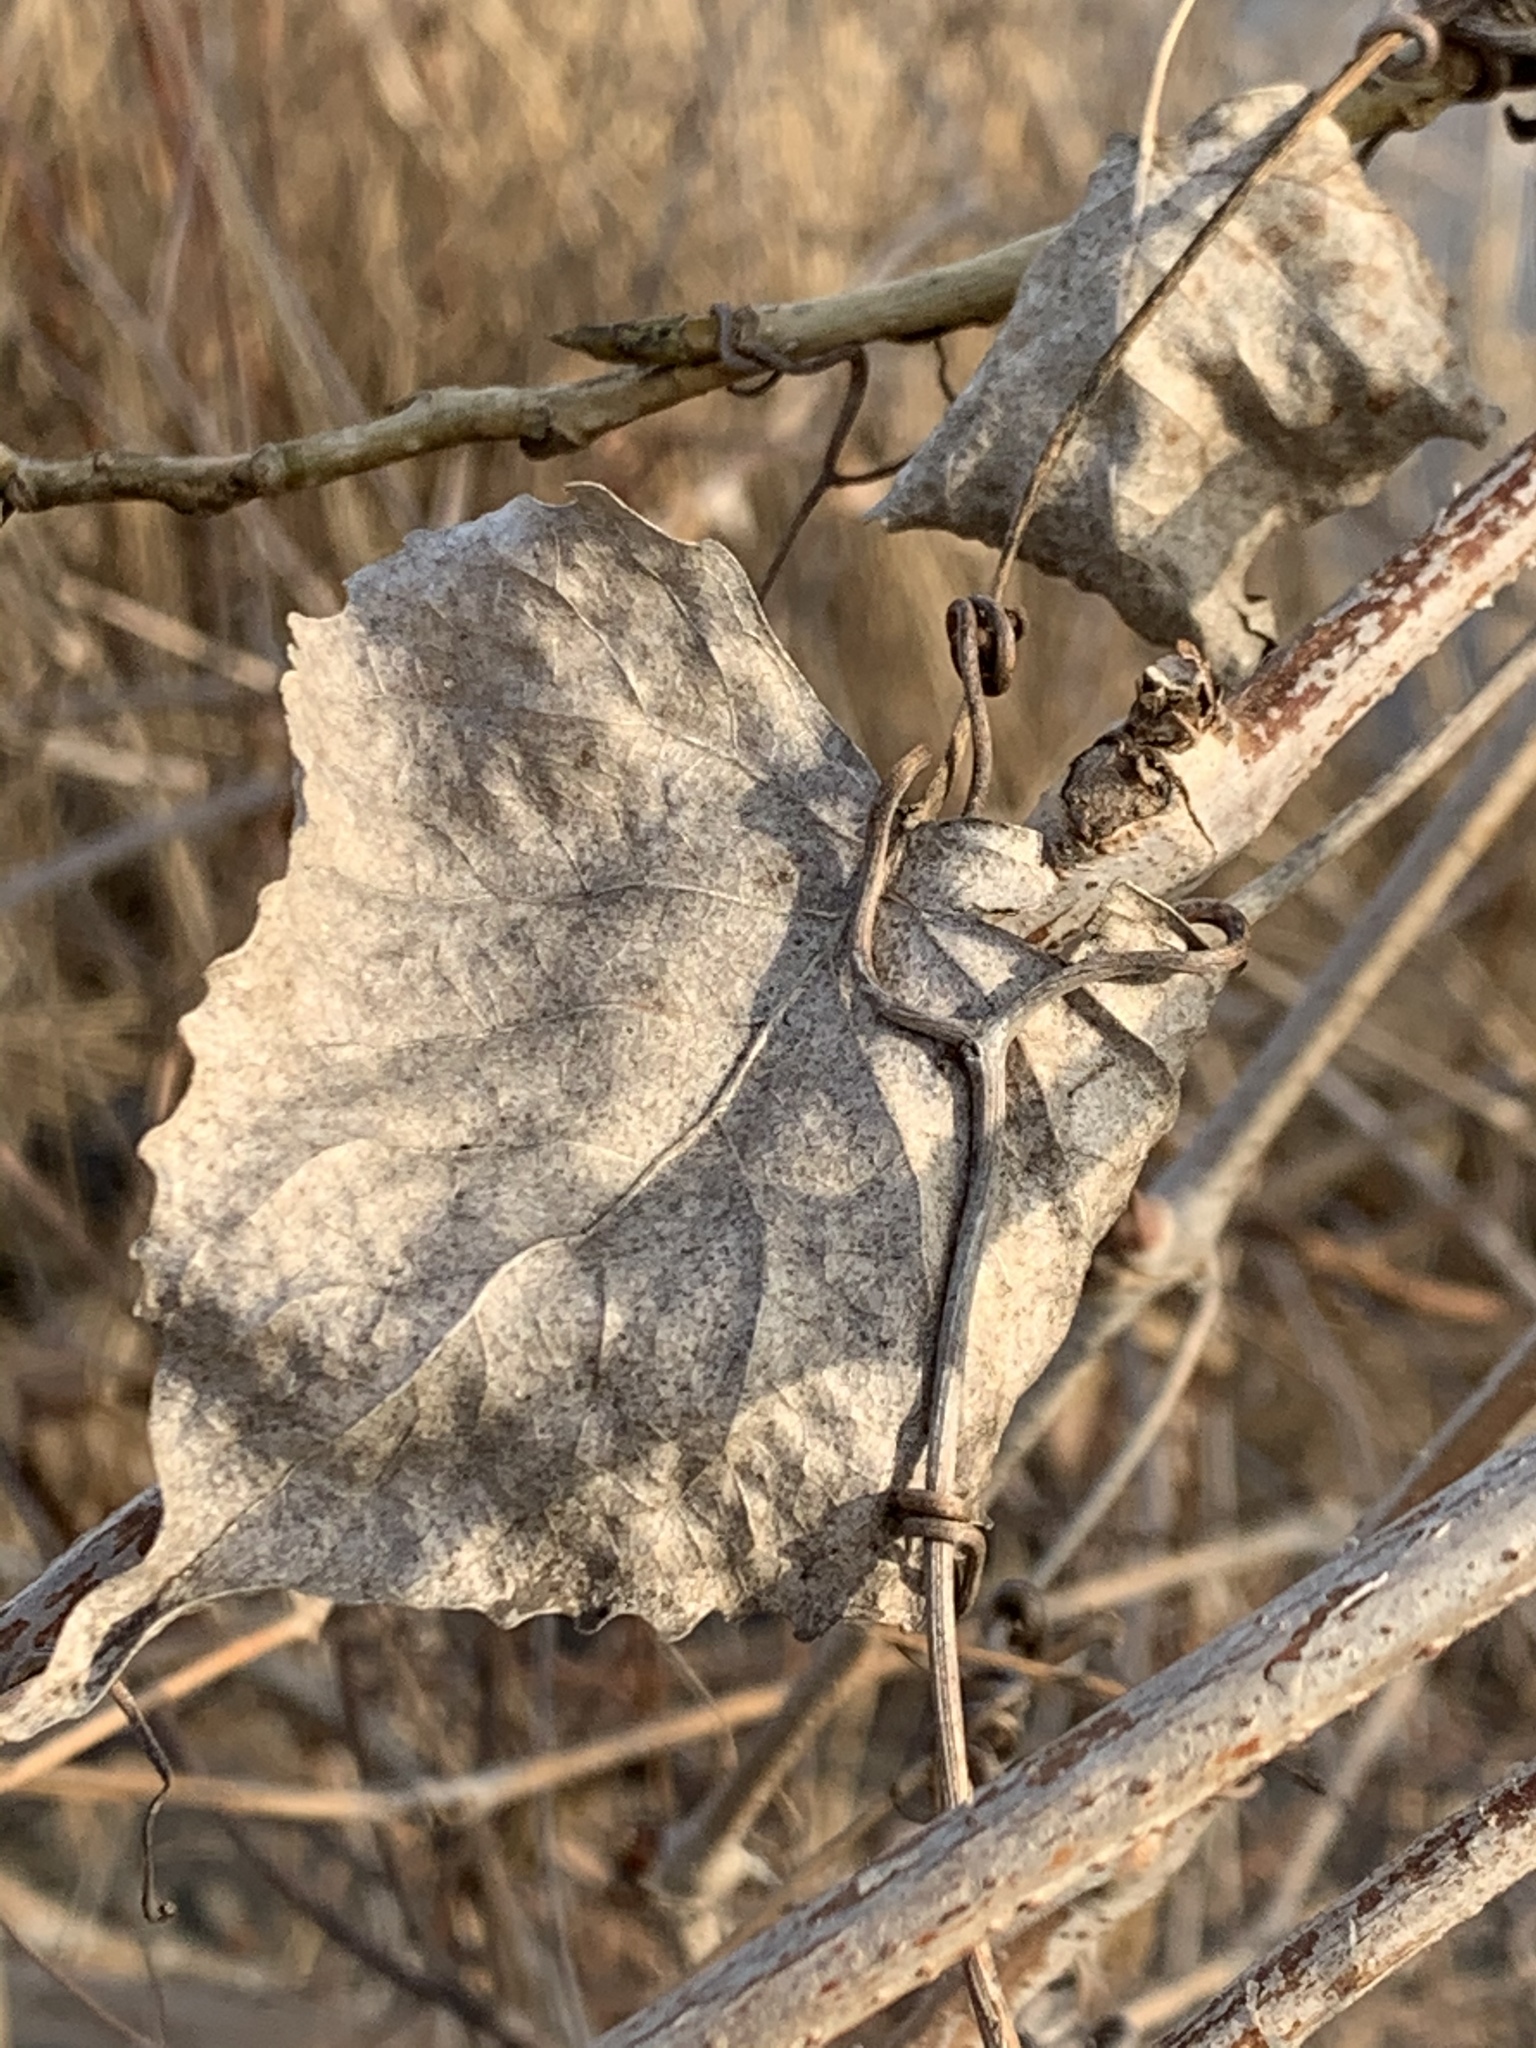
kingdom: Plantae
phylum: Tracheophyta
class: Magnoliopsida
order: Malpighiales
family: Salicaceae
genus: Populus
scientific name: Populus deltoides
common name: Eastern cottonwood
